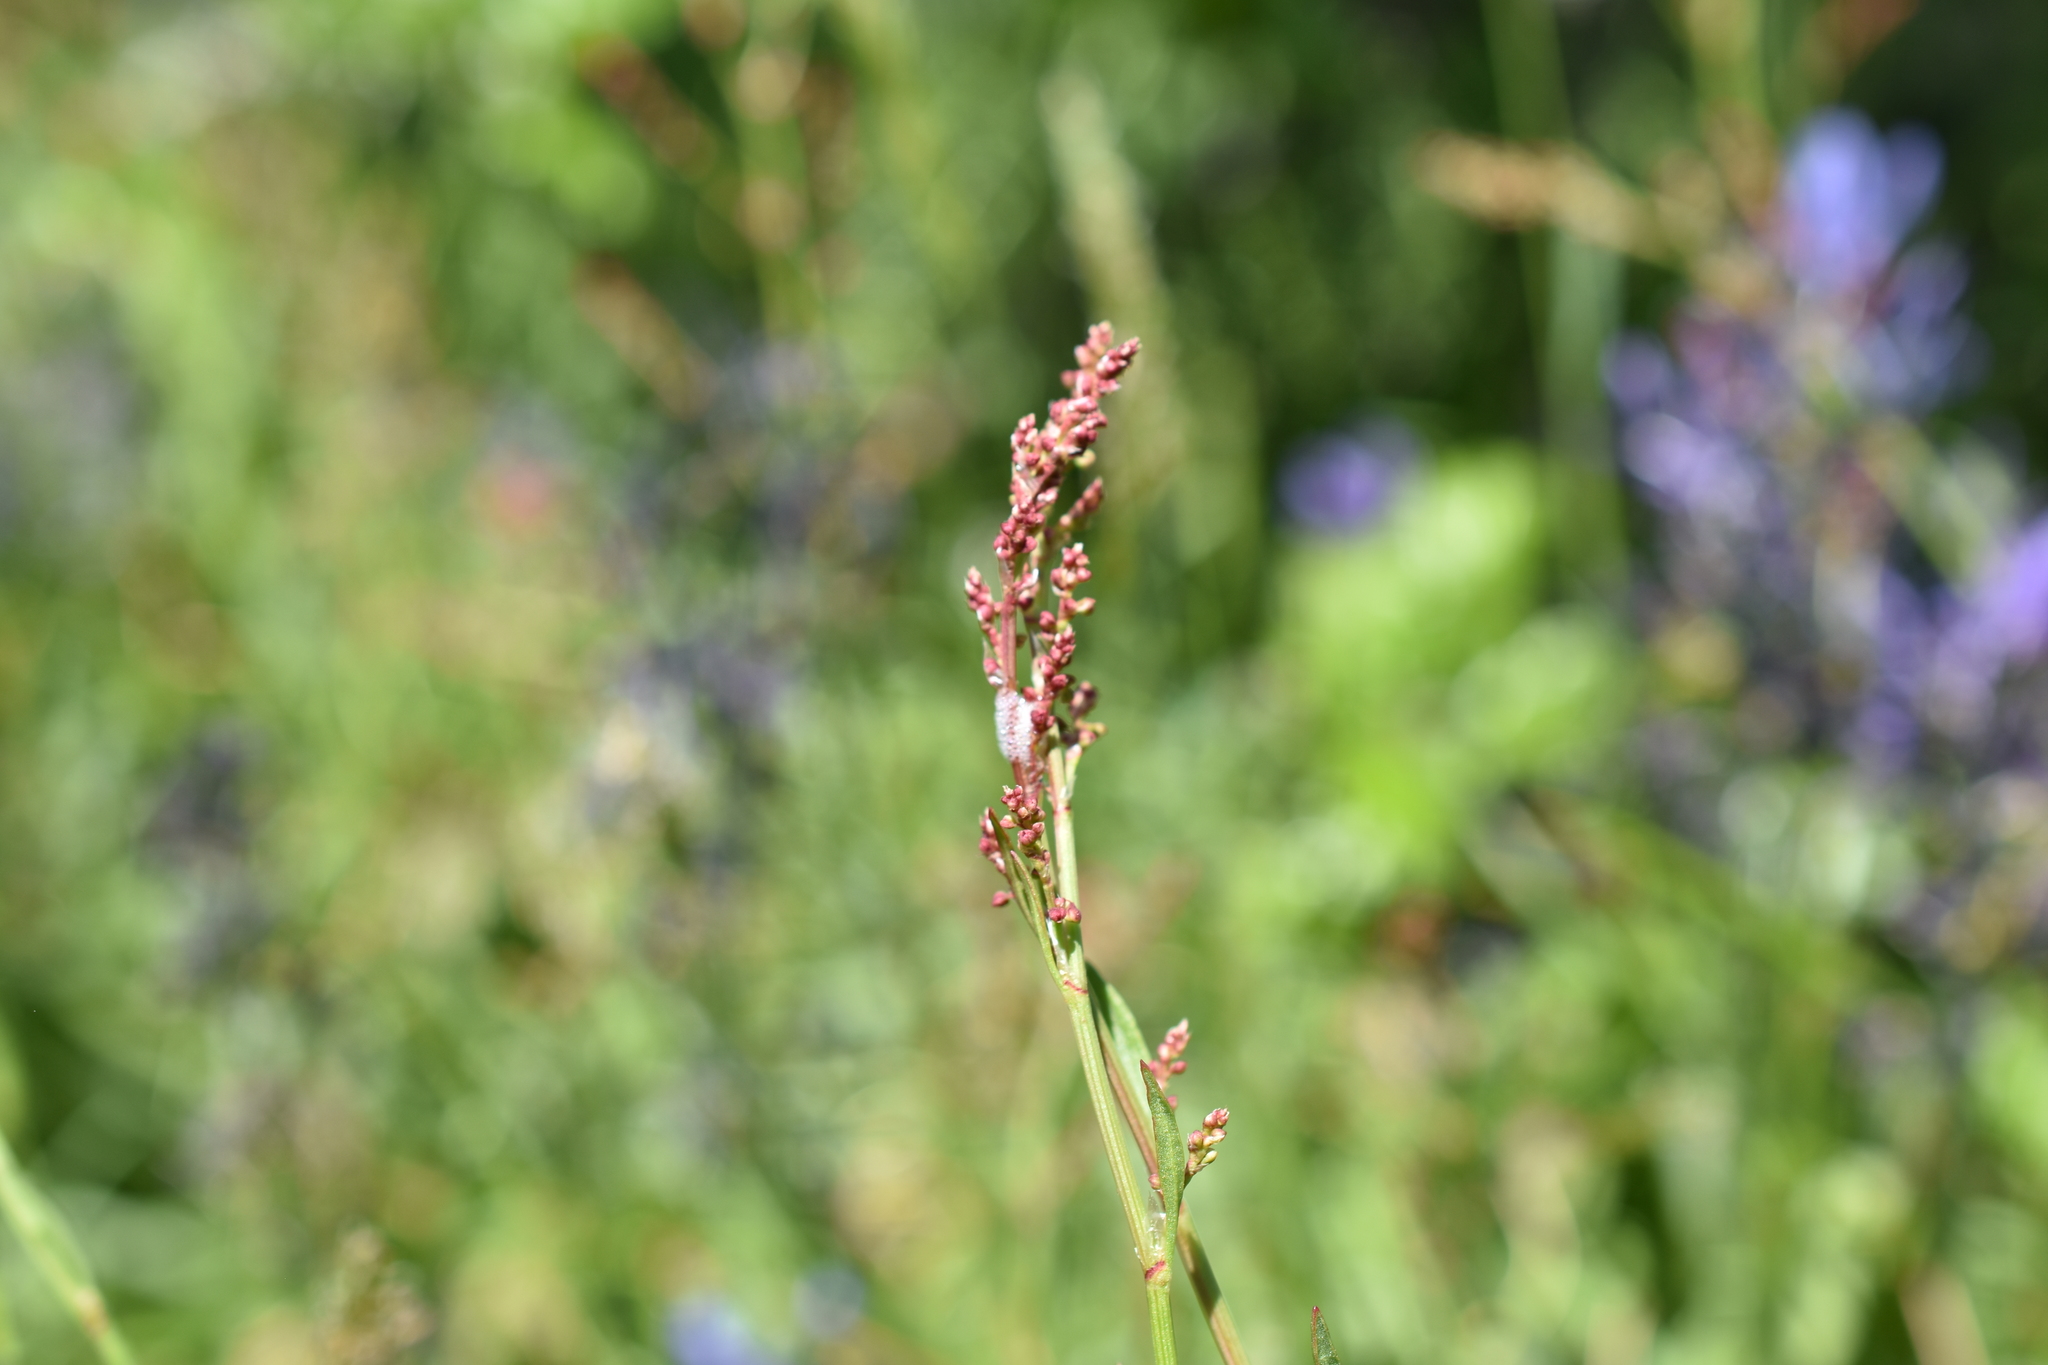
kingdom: Plantae
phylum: Tracheophyta
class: Magnoliopsida
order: Caryophyllales
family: Polygonaceae
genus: Rumex
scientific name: Rumex acetosa
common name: Garden sorrel
